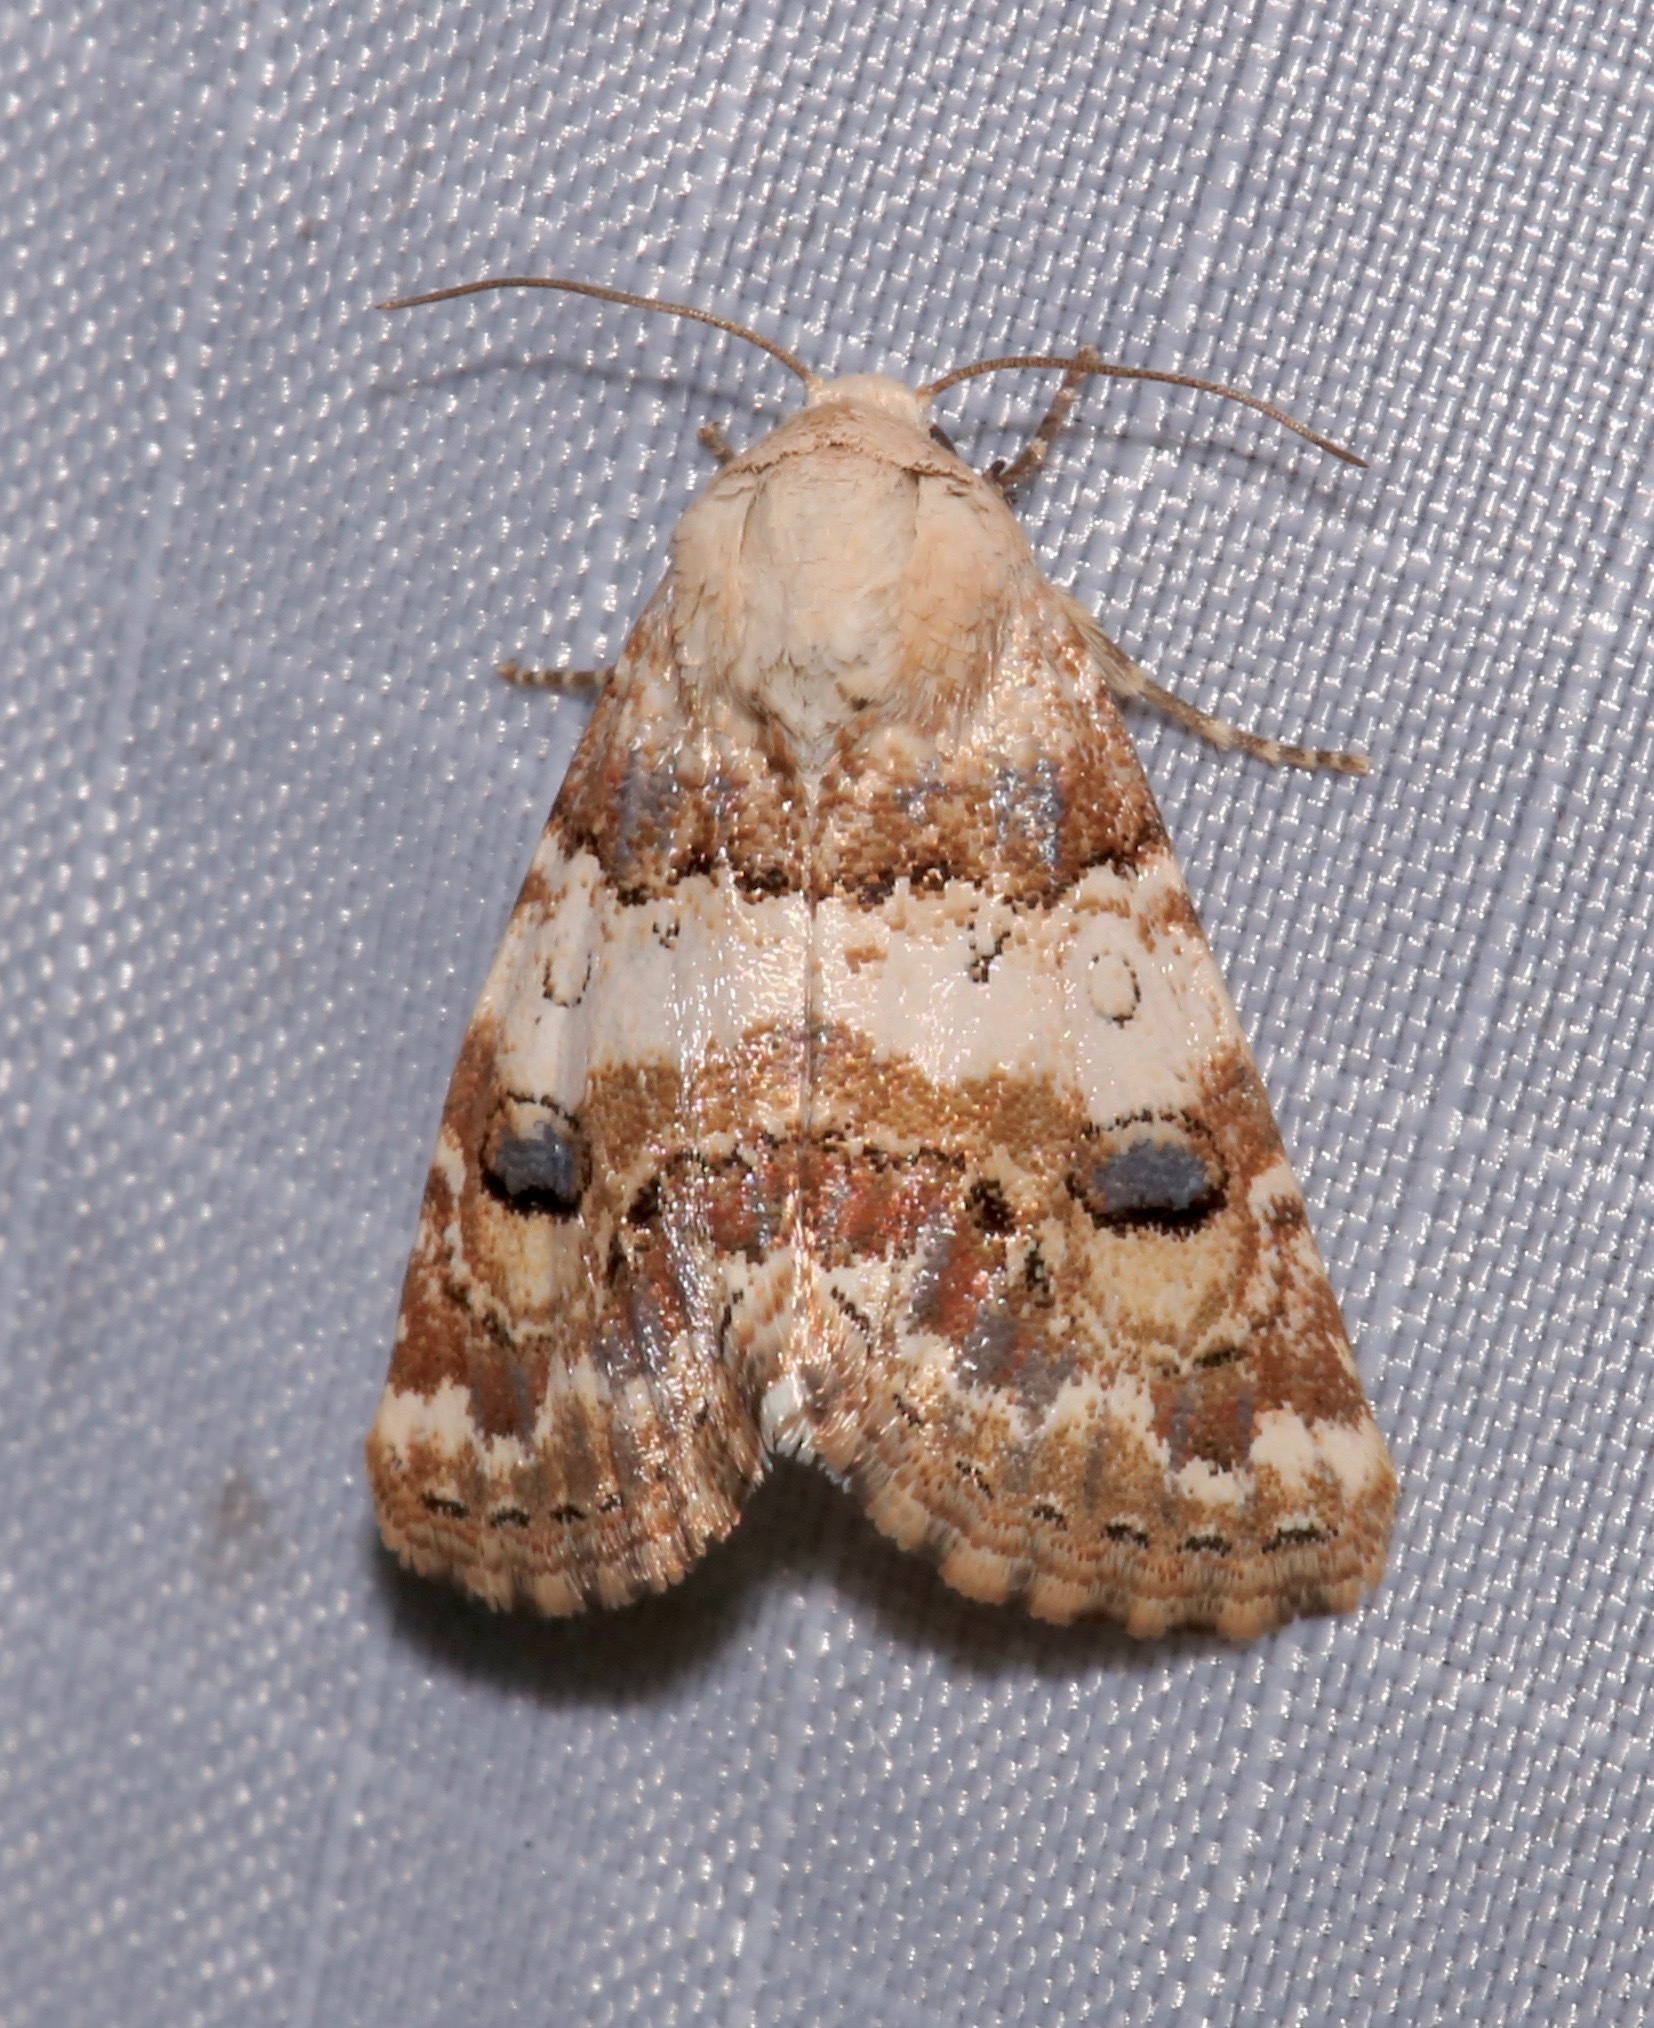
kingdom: Animalia
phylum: Arthropoda
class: Insecta
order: Lepidoptera
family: Noctuidae
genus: Schinia
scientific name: Schinia tertia
